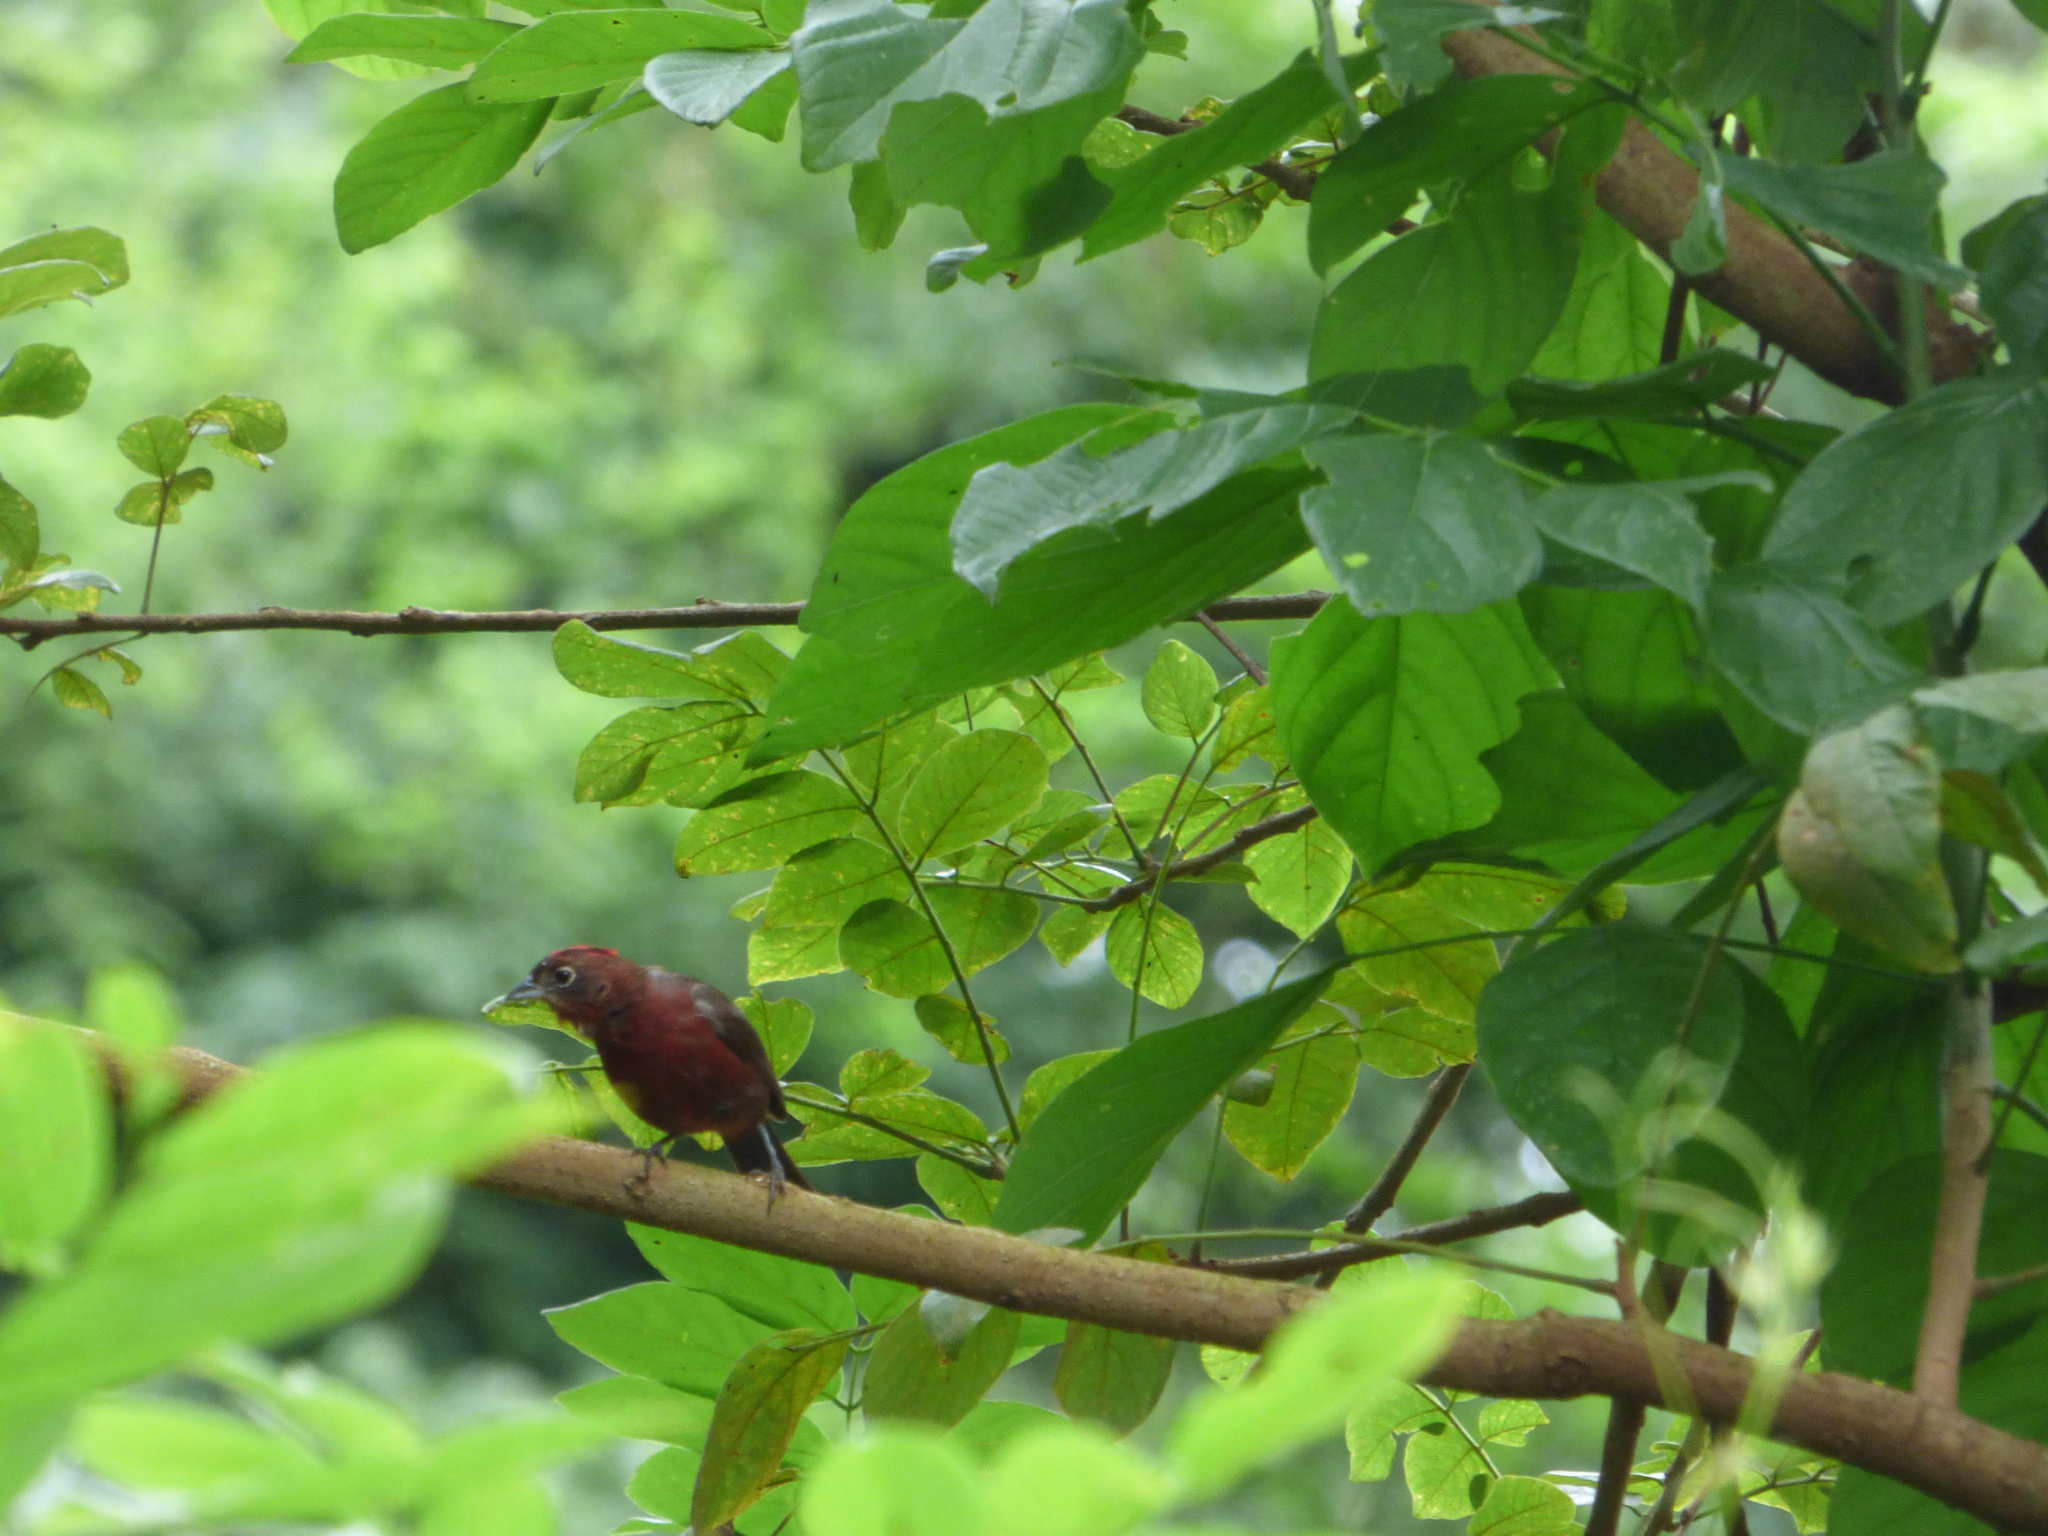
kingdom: Animalia
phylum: Chordata
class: Aves
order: Passeriformes
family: Thraupidae
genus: Coryphospingus
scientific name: Coryphospingus cucullatus
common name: Red pileated finch
